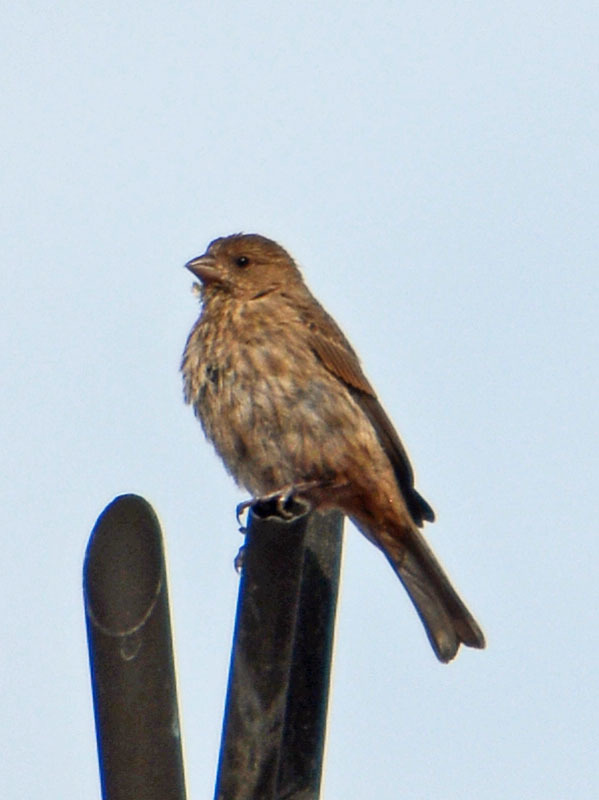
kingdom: Animalia
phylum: Chordata
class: Aves
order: Passeriformes
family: Fringillidae
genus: Haemorhous
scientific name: Haemorhous mexicanus
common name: House finch
